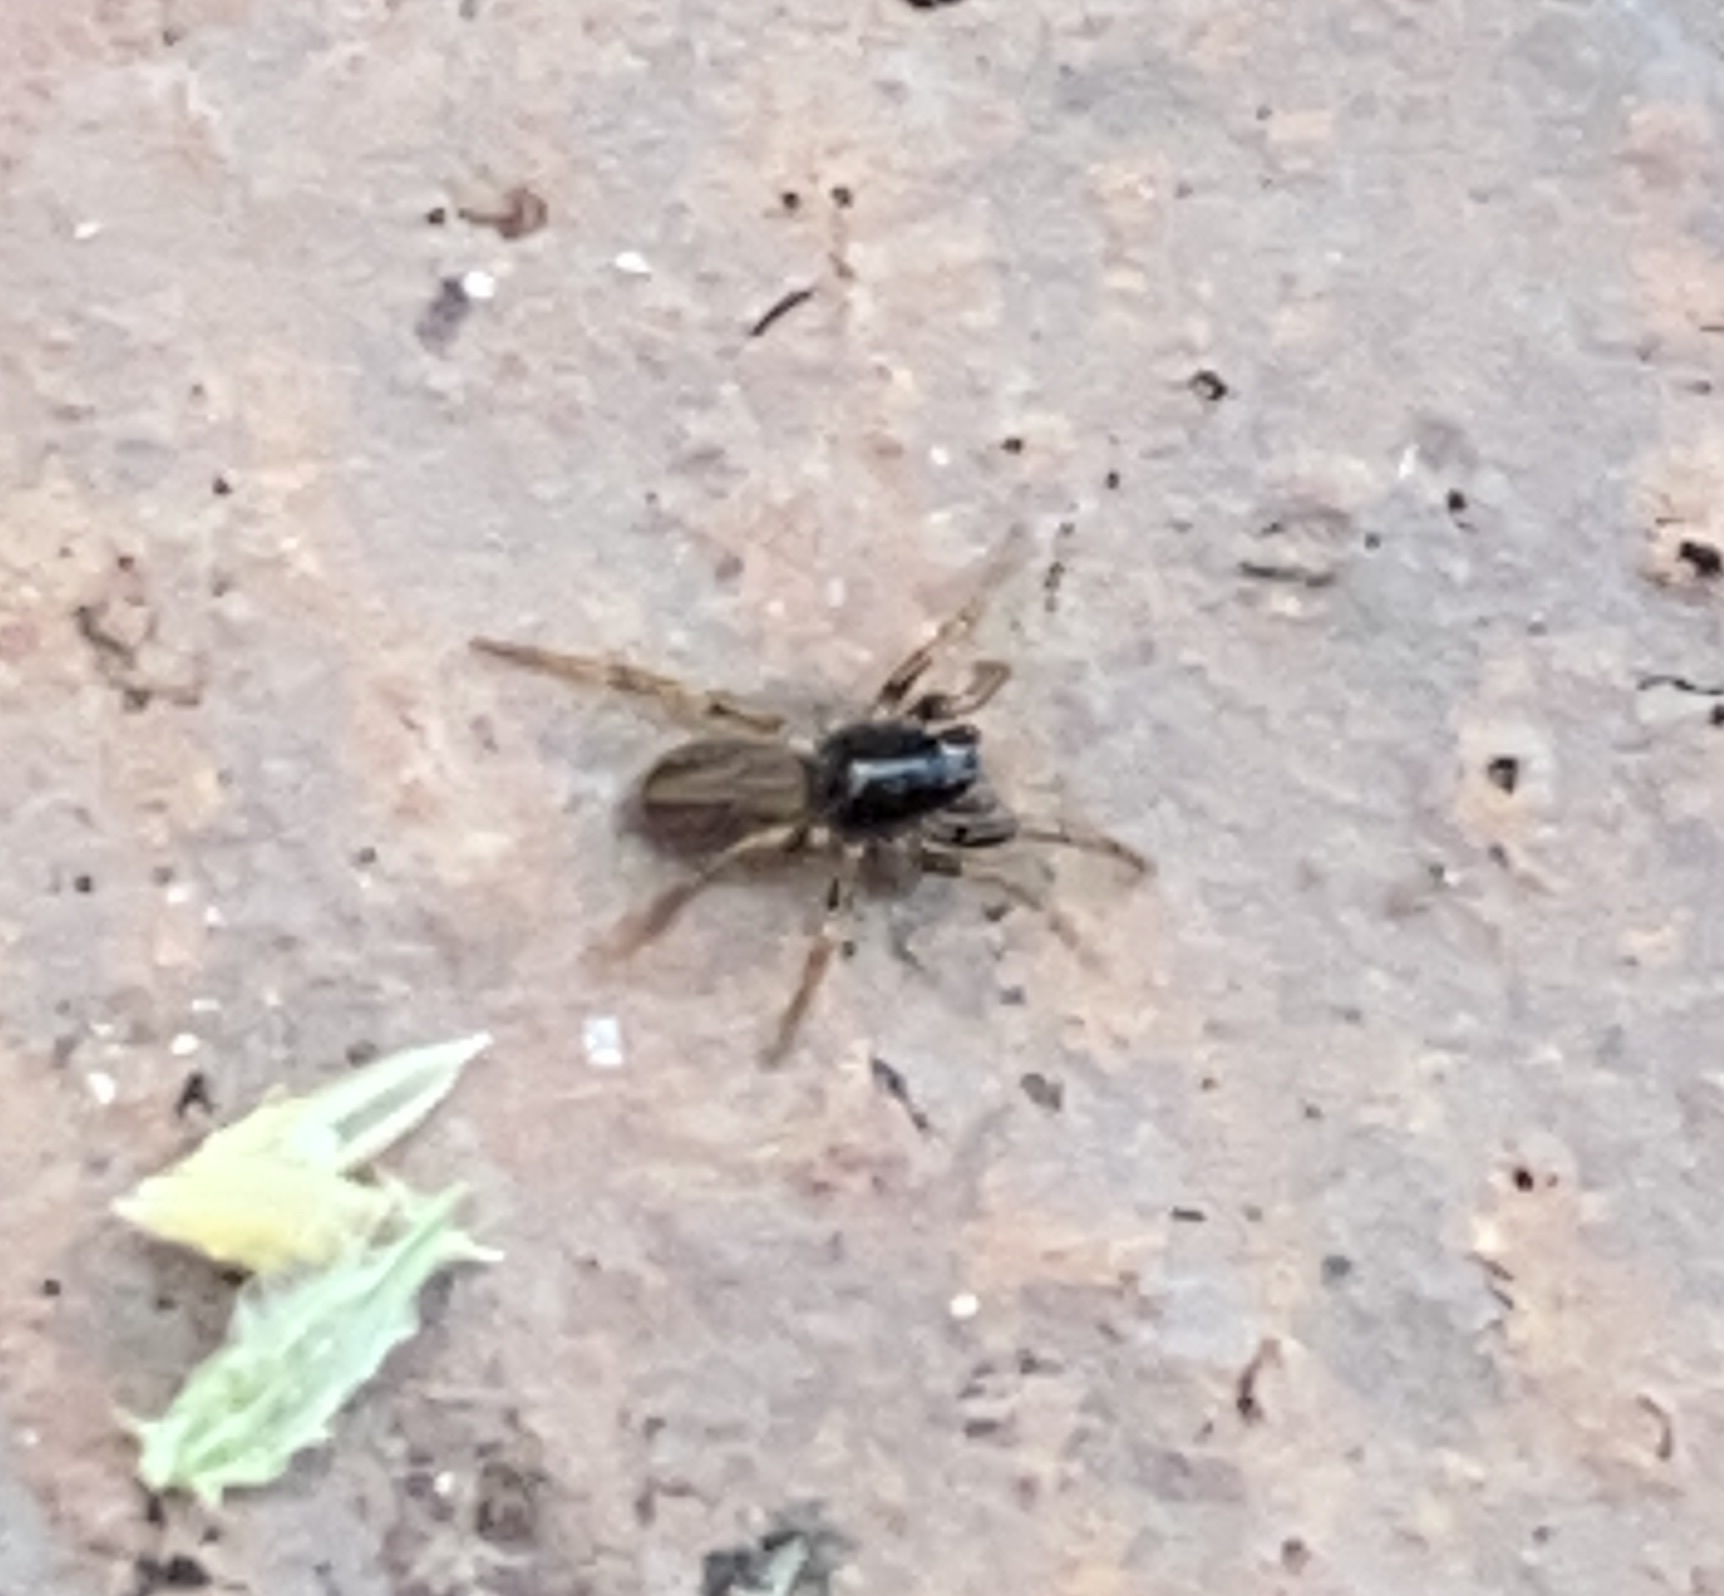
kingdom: Animalia
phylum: Arthropoda
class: Arachnida
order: Araneae
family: Lycosidae
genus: Allocosa
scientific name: Allocosa funerea
